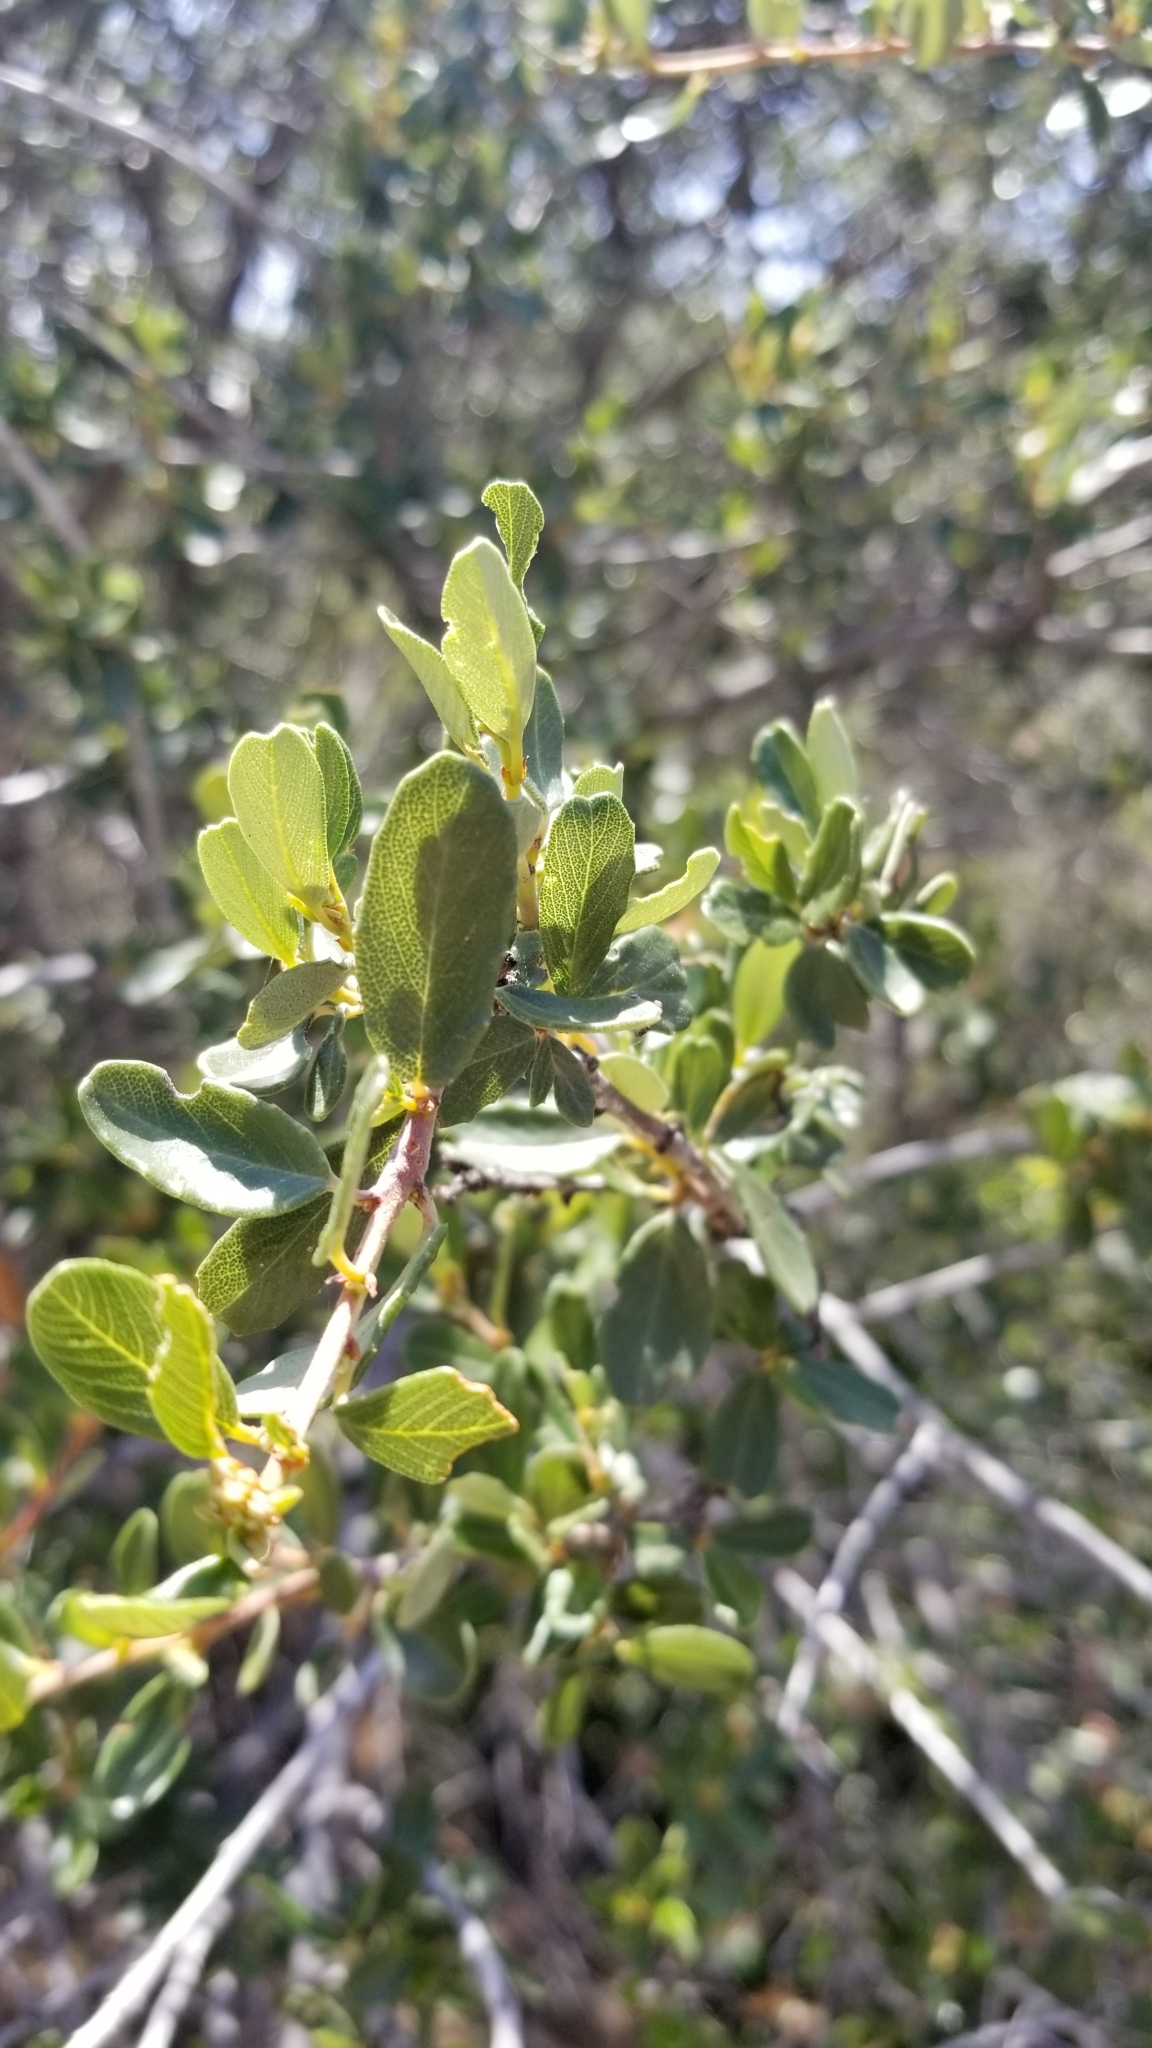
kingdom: Plantae
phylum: Tracheophyta
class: Magnoliopsida
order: Rosales
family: Rosaceae
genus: Cercocarpus
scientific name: Cercocarpus betuloides
